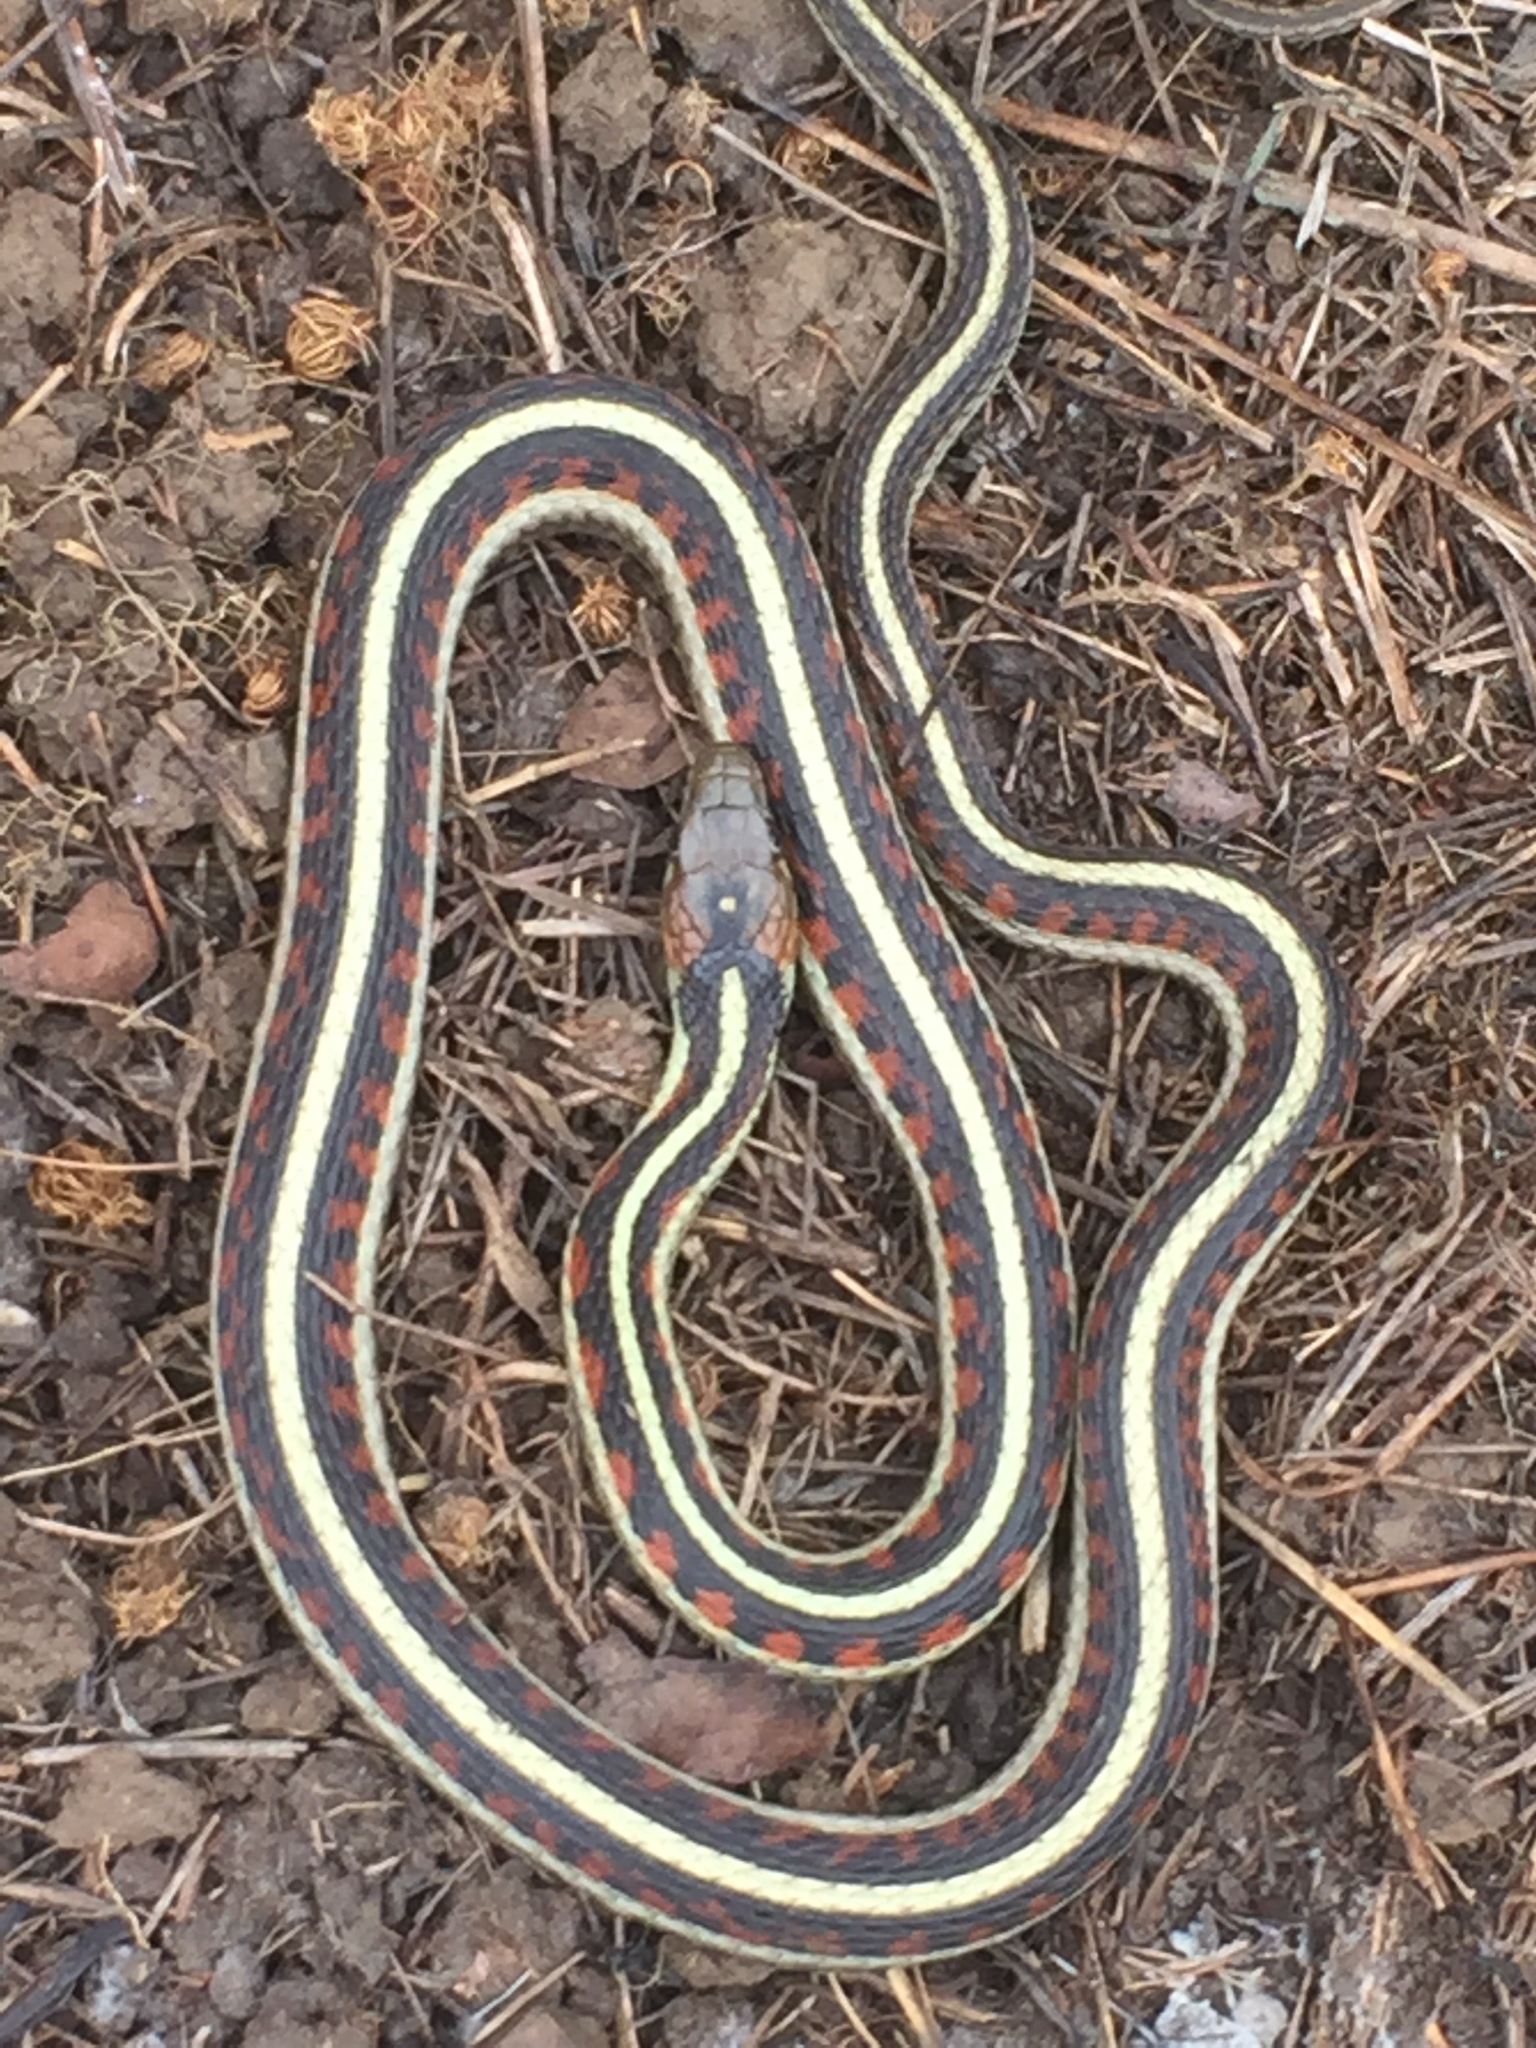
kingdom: Animalia
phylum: Chordata
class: Squamata
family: Colubridae
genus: Thamnophis
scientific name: Thamnophis sirtalis
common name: Common garter snake
